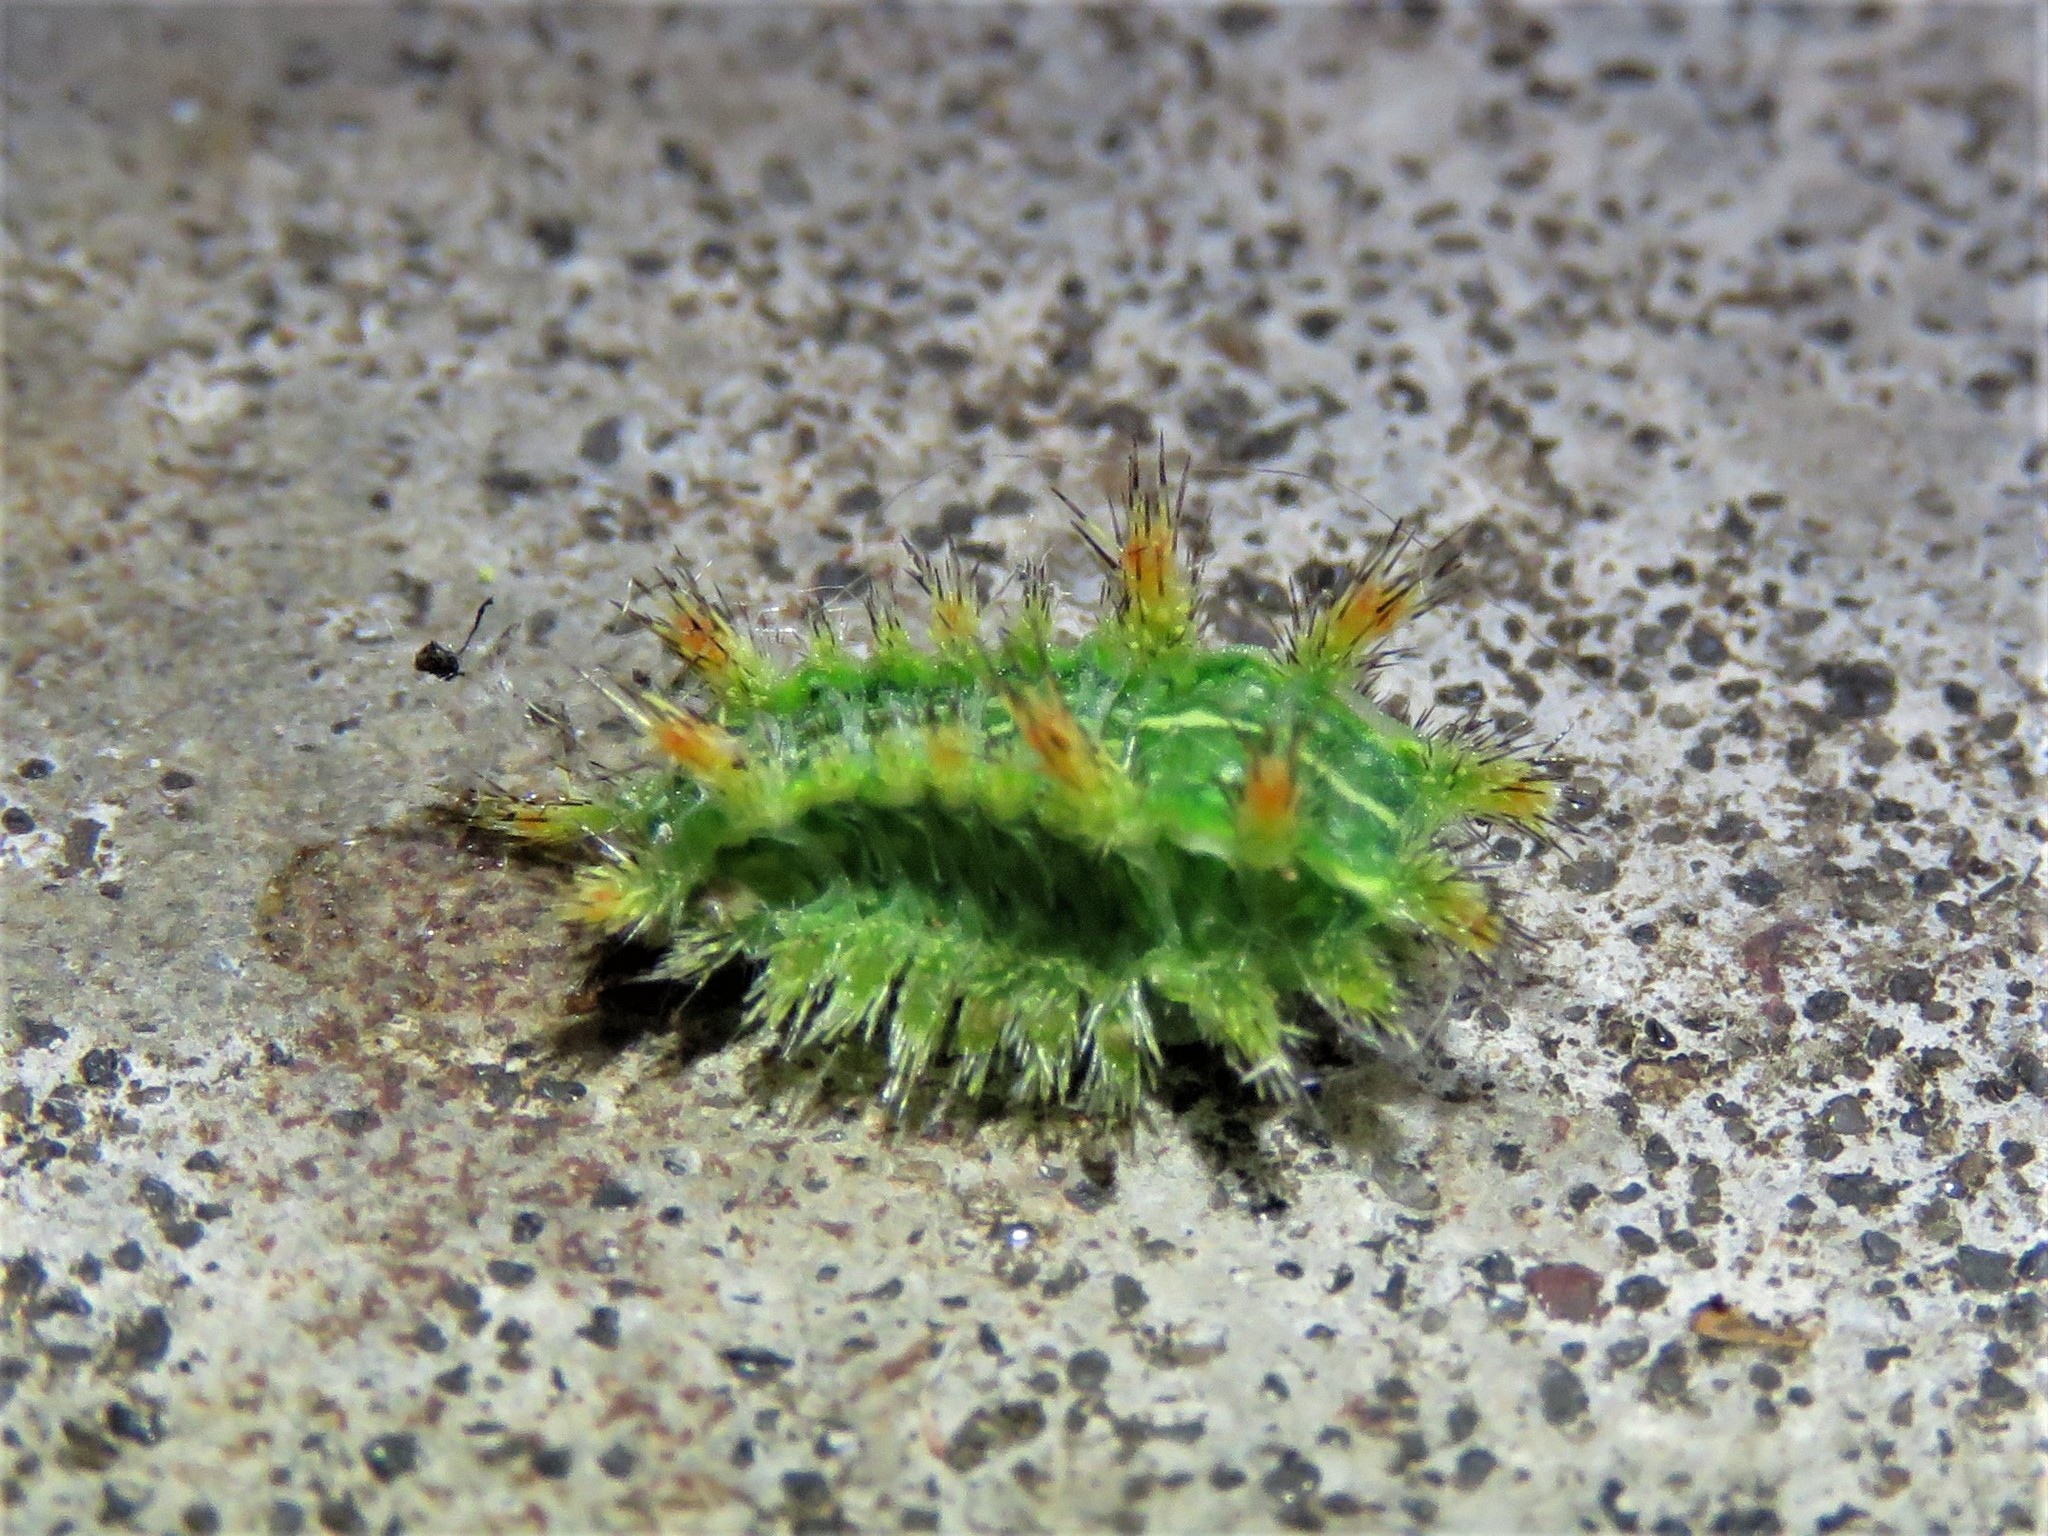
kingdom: Animalia
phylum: Arthropoda
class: Insecta
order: Lepidoptera
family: Limacodidae
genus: Euclea
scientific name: Euclea incisa
